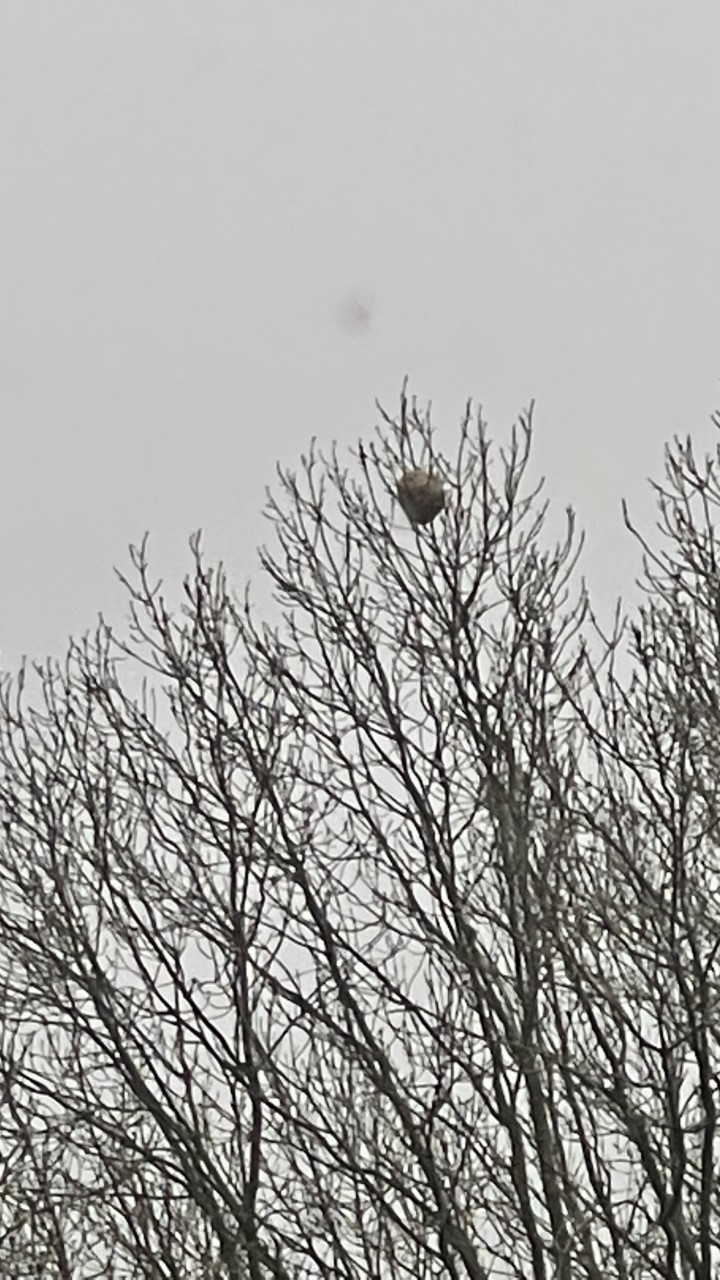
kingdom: Animalia
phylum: Arthropoda
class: Insecta
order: Hymenoptera
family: Vespidae
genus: Vespa
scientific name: Vespa velutina
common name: Asian hornet
